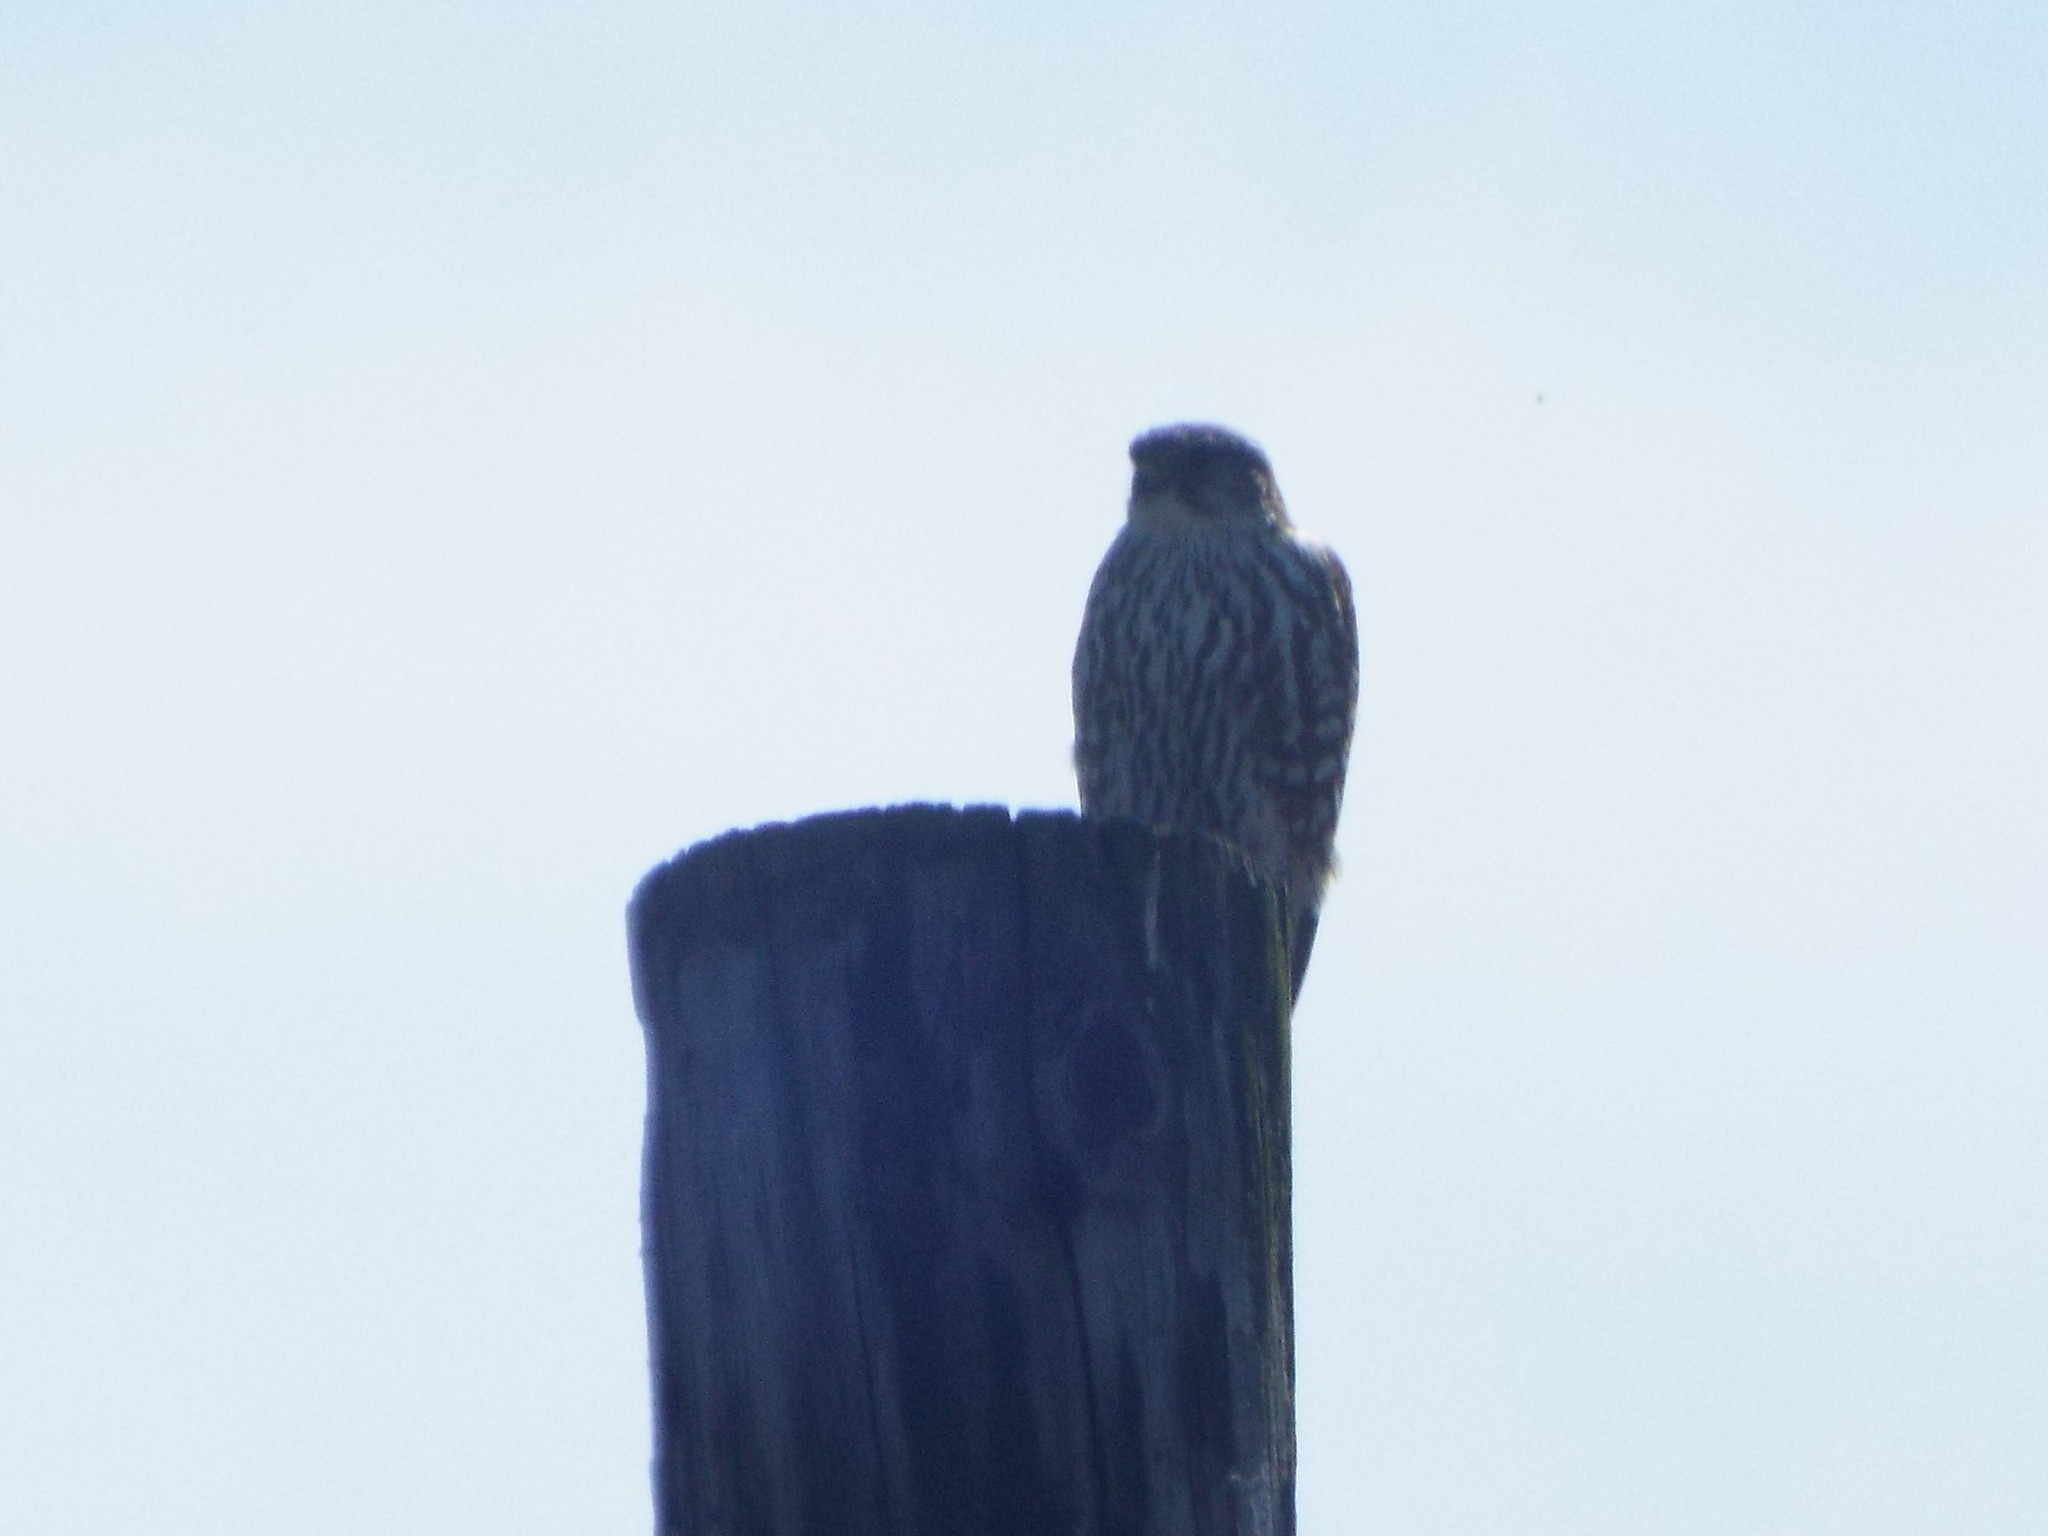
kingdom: Animalia
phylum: Chordata
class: Aves
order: Falconiformes
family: Falconidae
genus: Falco
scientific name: Falco columbarius
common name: Merlin
